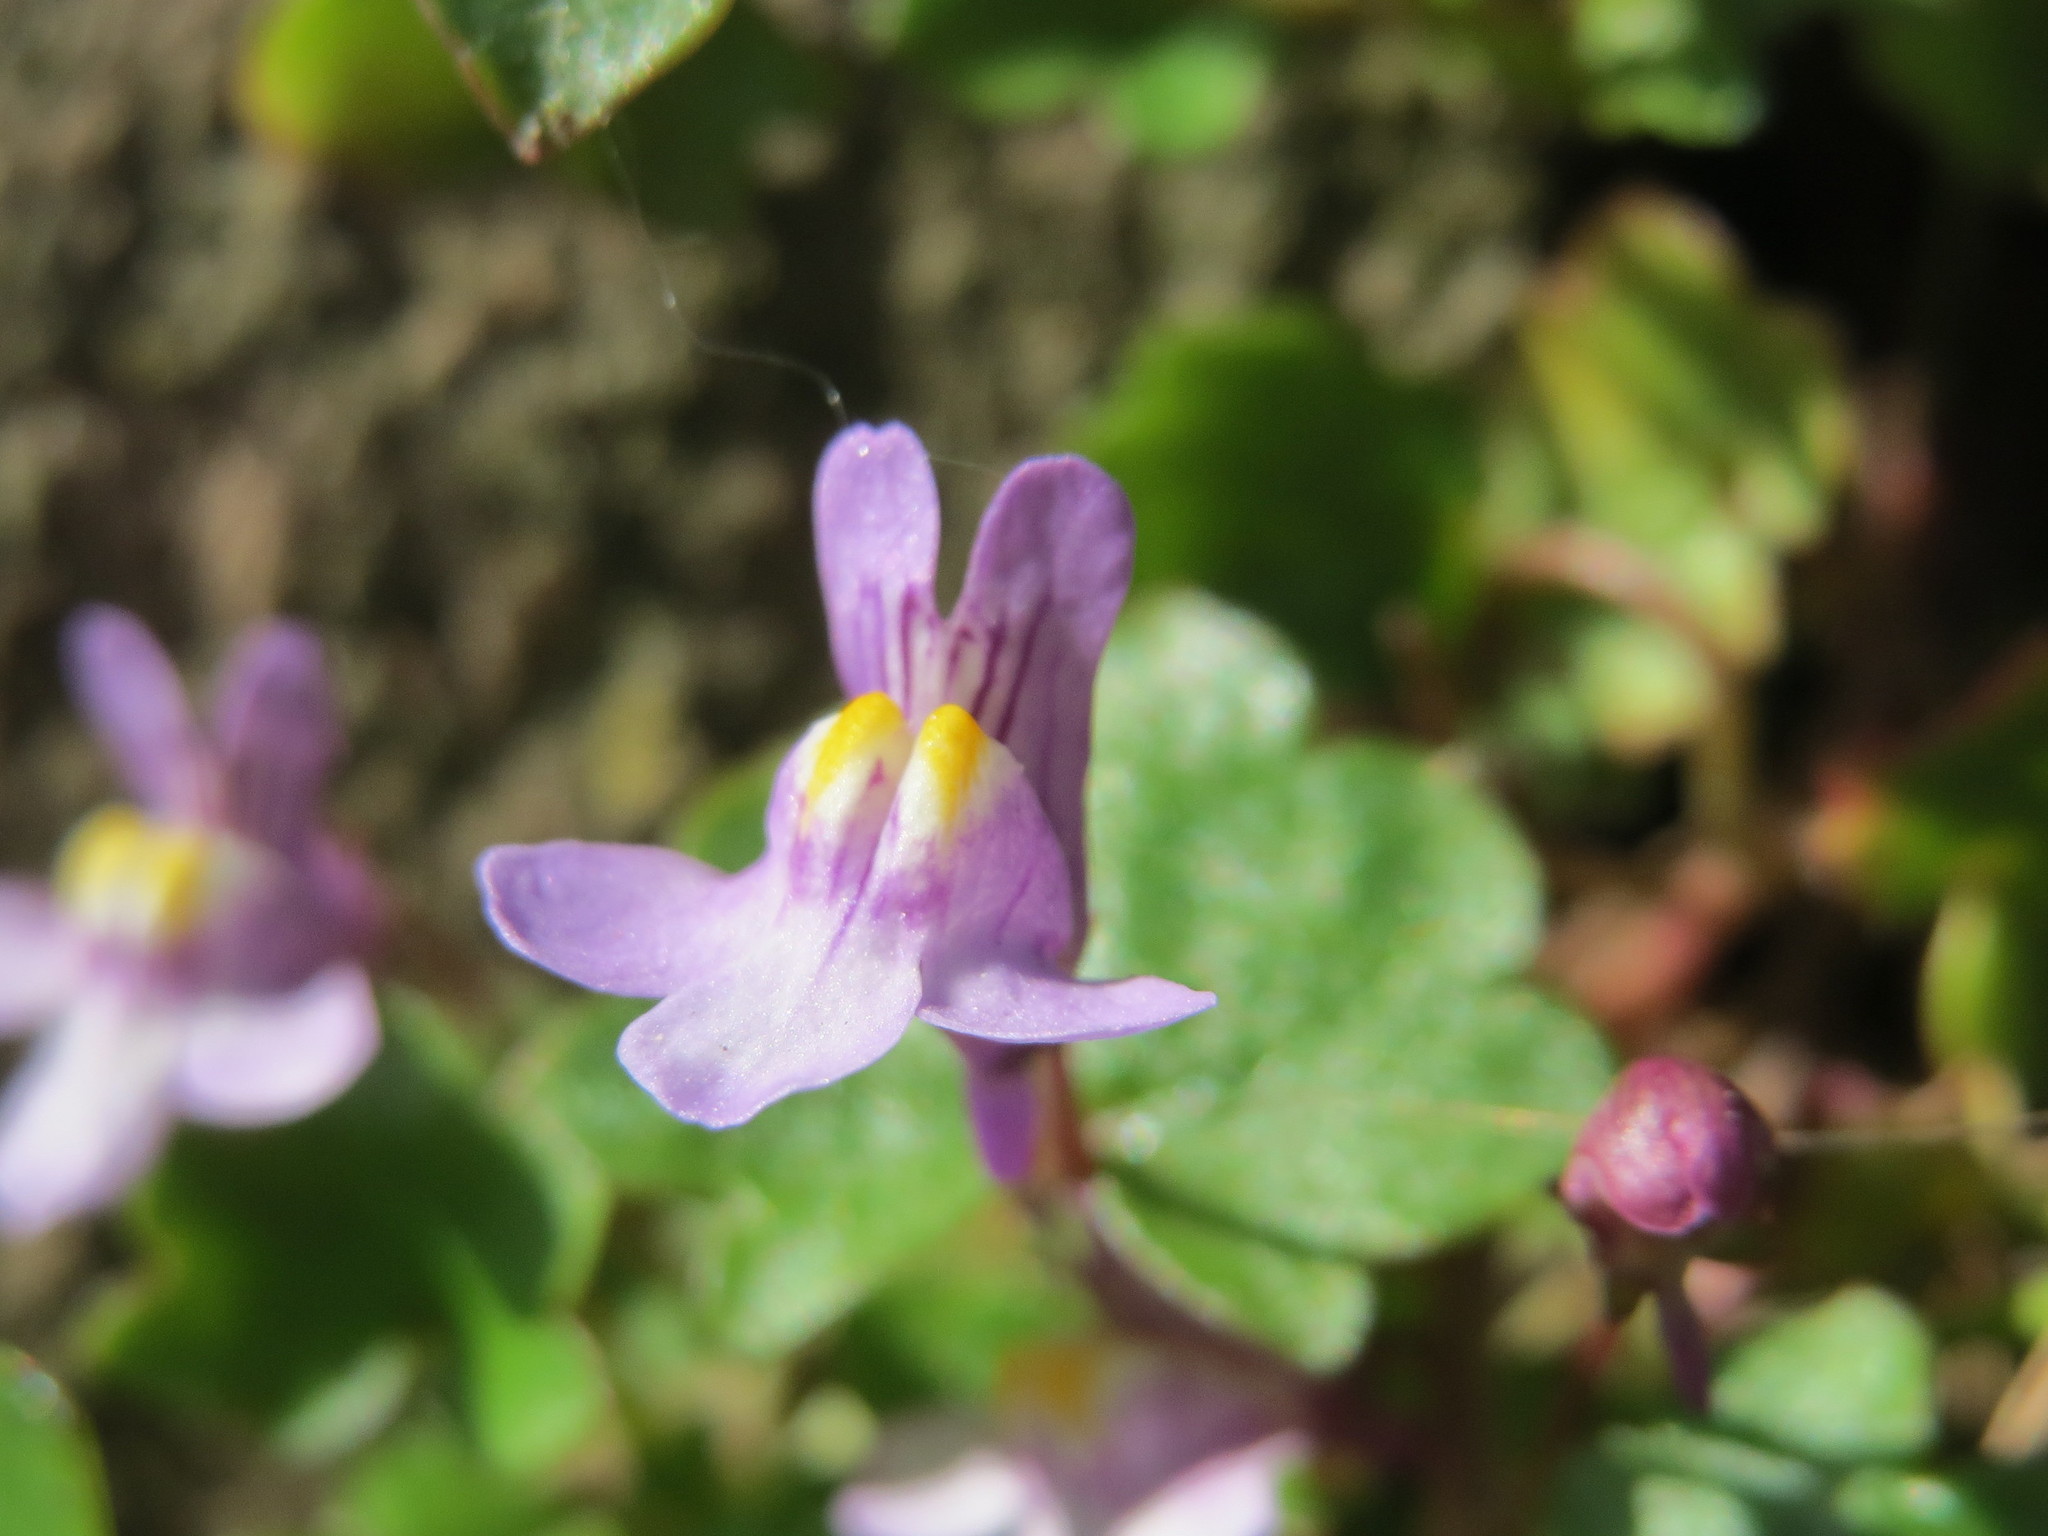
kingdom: Plantae
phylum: Tracheophyta
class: Magnoliopsida
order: Lamiales
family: Plantaginaceae
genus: Cymbalaria
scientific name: Cymbalaria muralis
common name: Ivy-leaved toadflax
